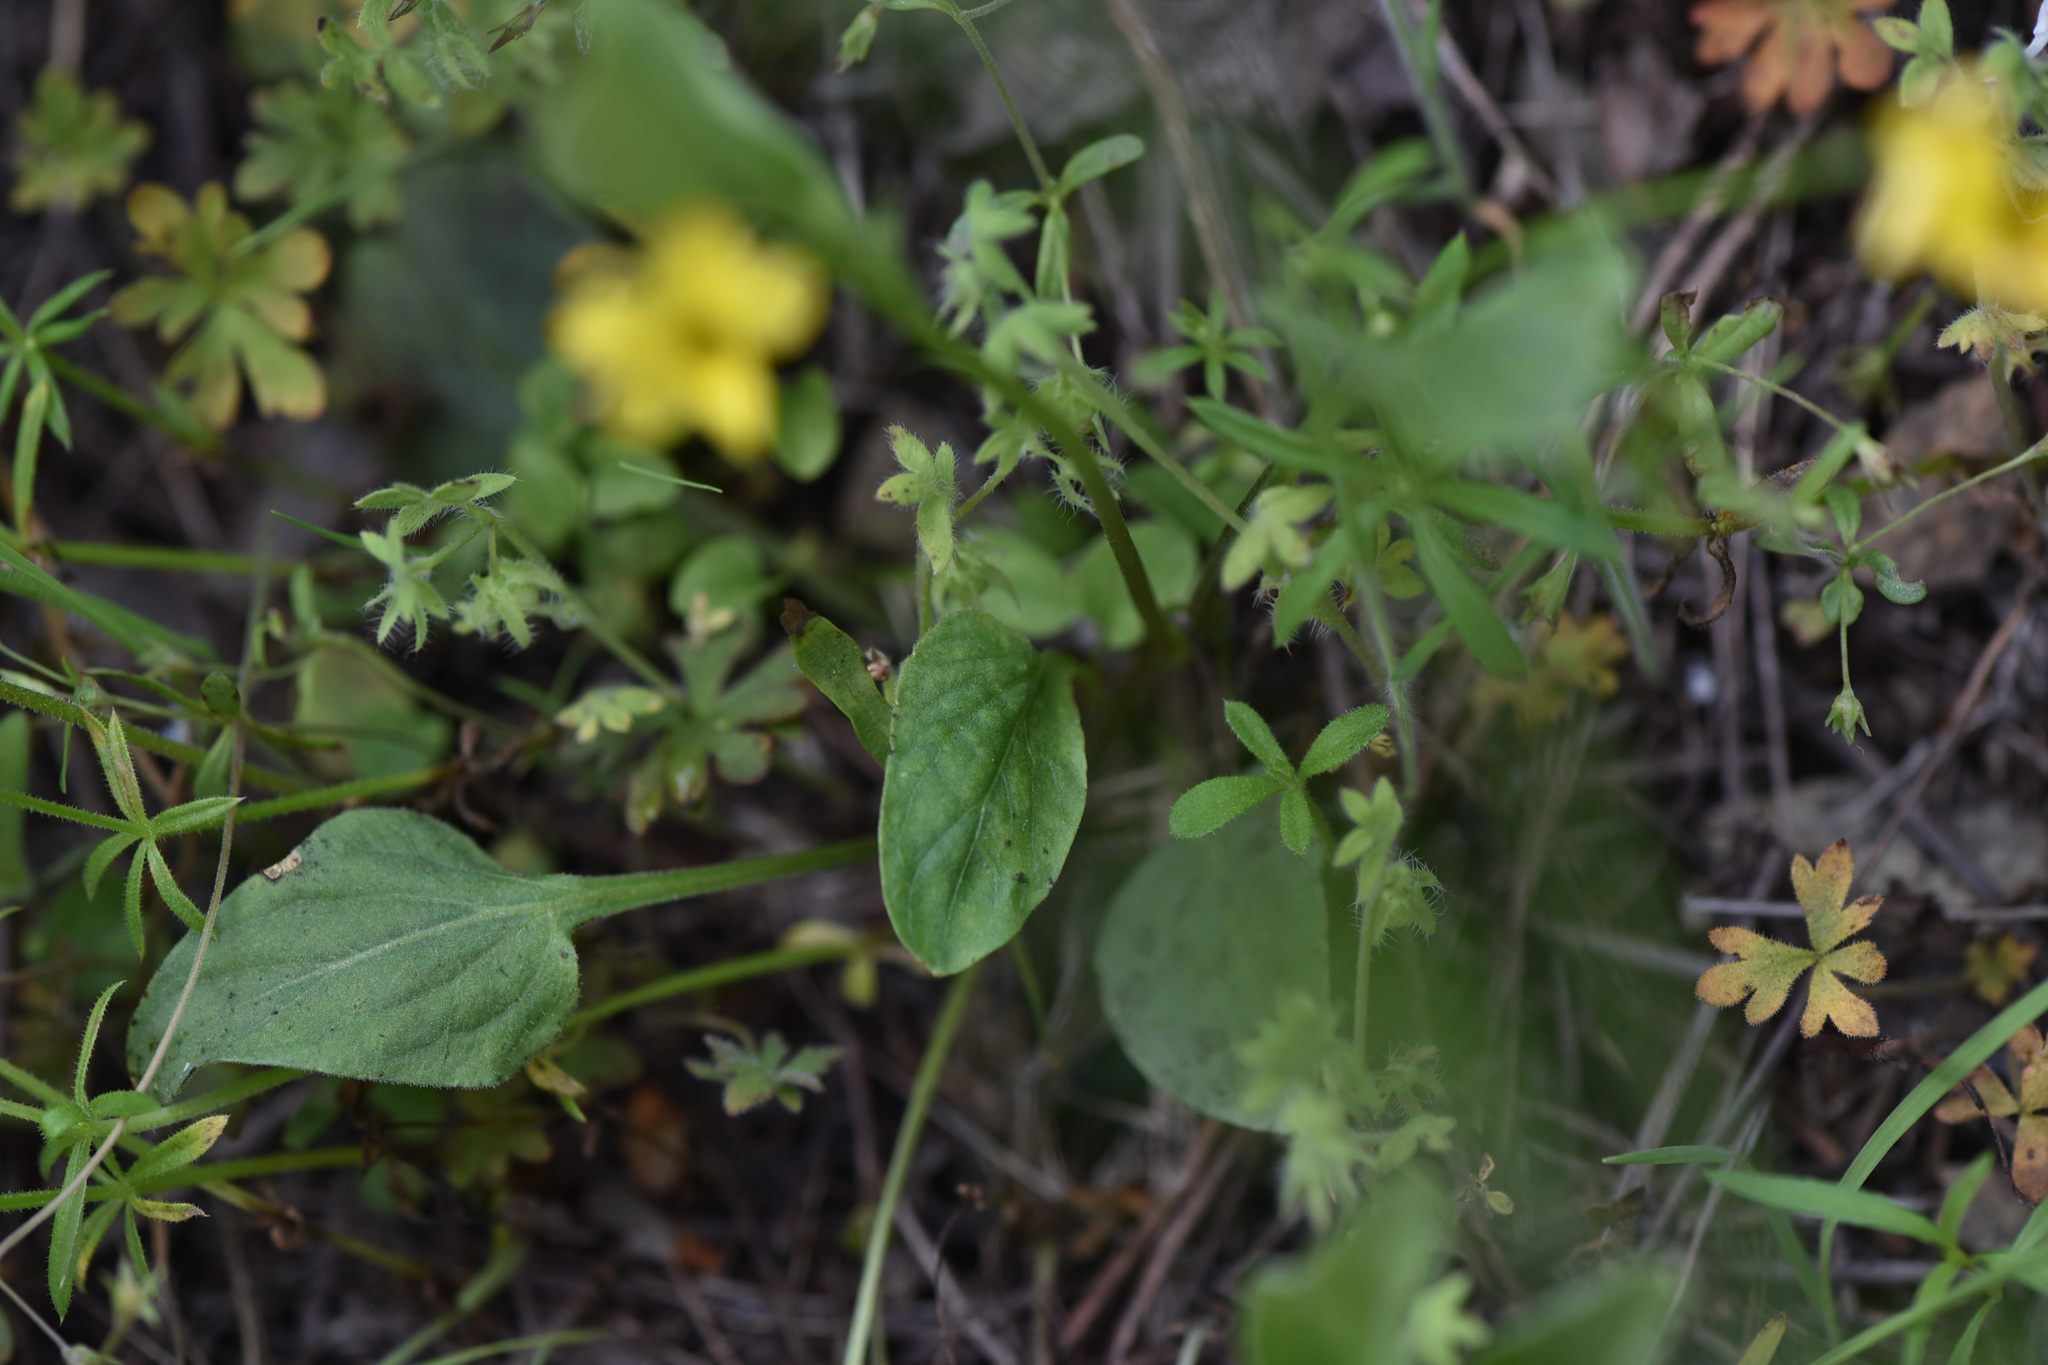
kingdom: Plantae
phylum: Tracheophyta
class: Magnoliopsida
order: Malpighiales
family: Violaceae
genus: Viola
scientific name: Viola vallicola
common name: Valley violet
